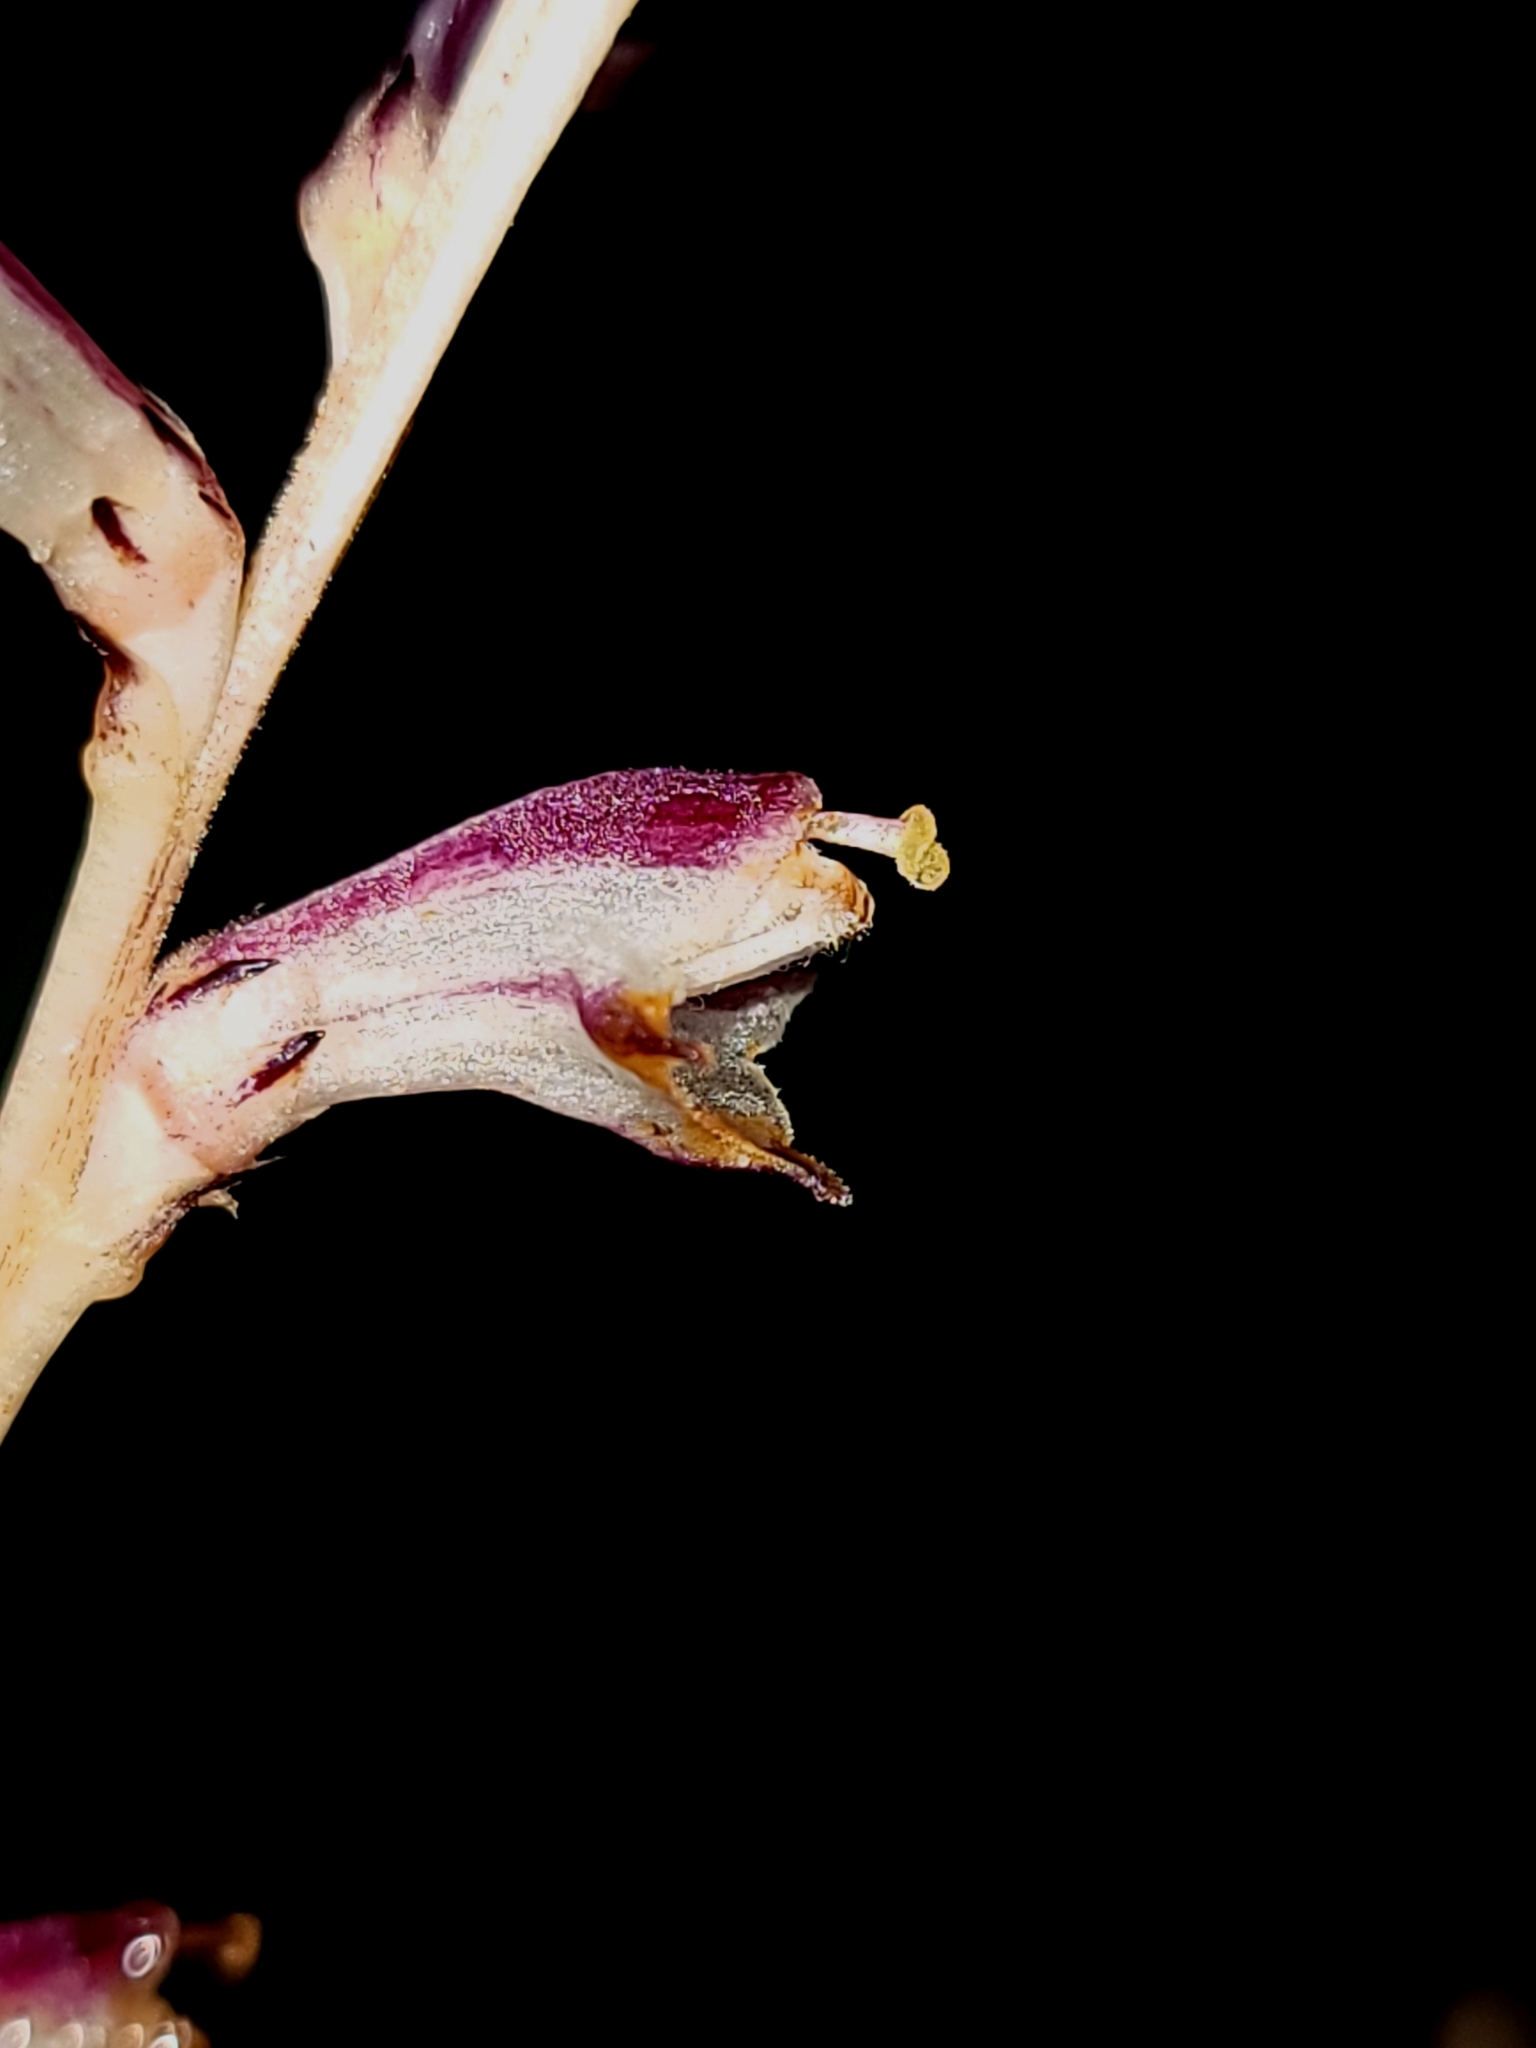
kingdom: Plantae
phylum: Tracheophyta
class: Magnoliopsida
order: Lamiales
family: Orobanchaceae
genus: Epifagus
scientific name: Epifagus virginiana
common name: Beechdrops
